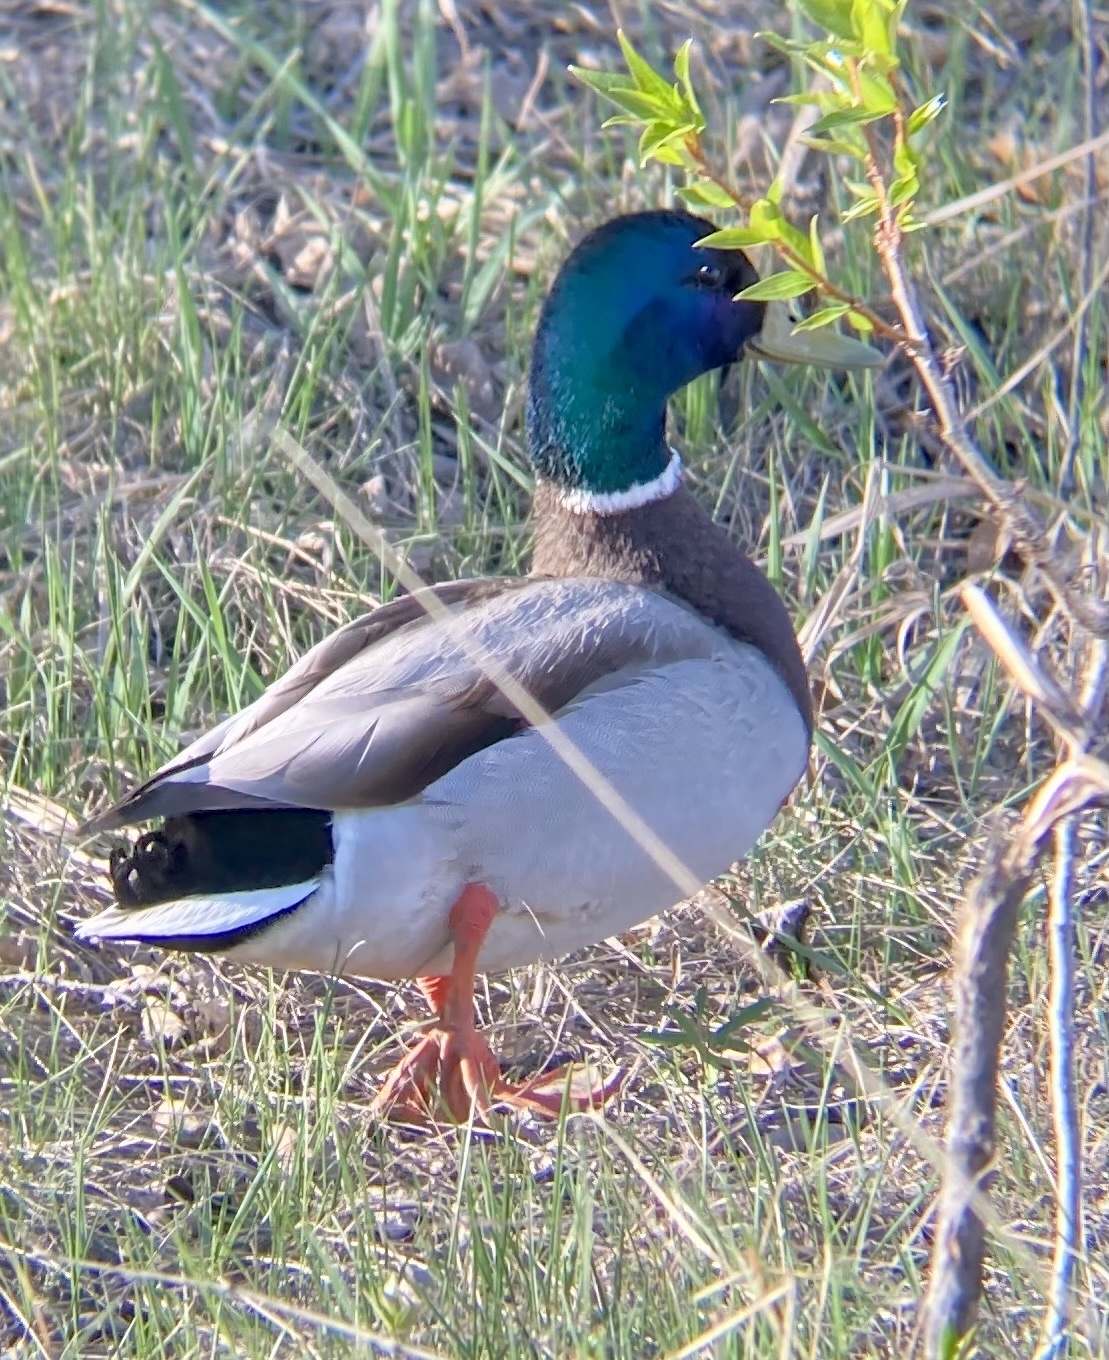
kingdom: Animalia
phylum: Chordata
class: Aves
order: Anseriformes
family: Anatidae
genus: Anas
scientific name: Anas platyrhynchos
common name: Mallard
